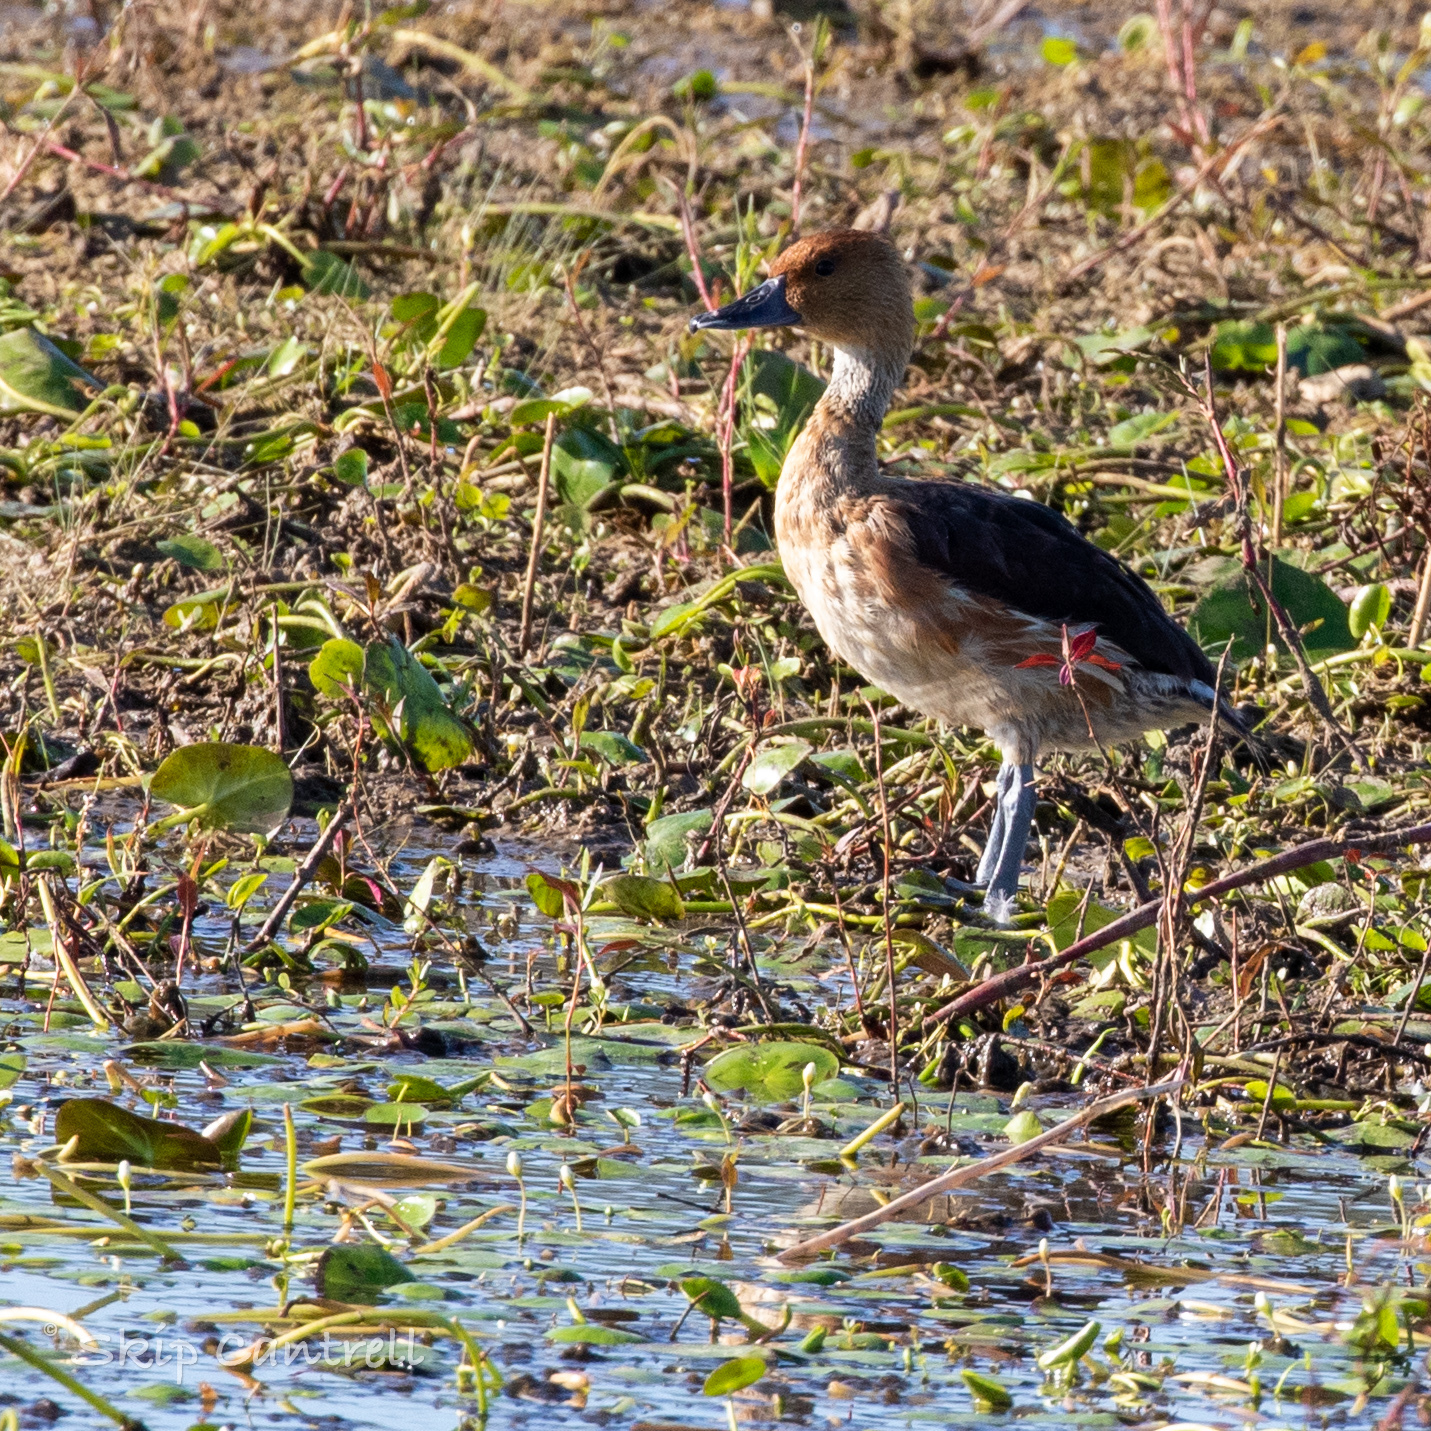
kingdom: Animalia
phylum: Chordata
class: Aves
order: Anseriformes
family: Anatidae
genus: Dendrocygna
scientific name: Dendrocygna bicolor
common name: Fulvous whistling duck
